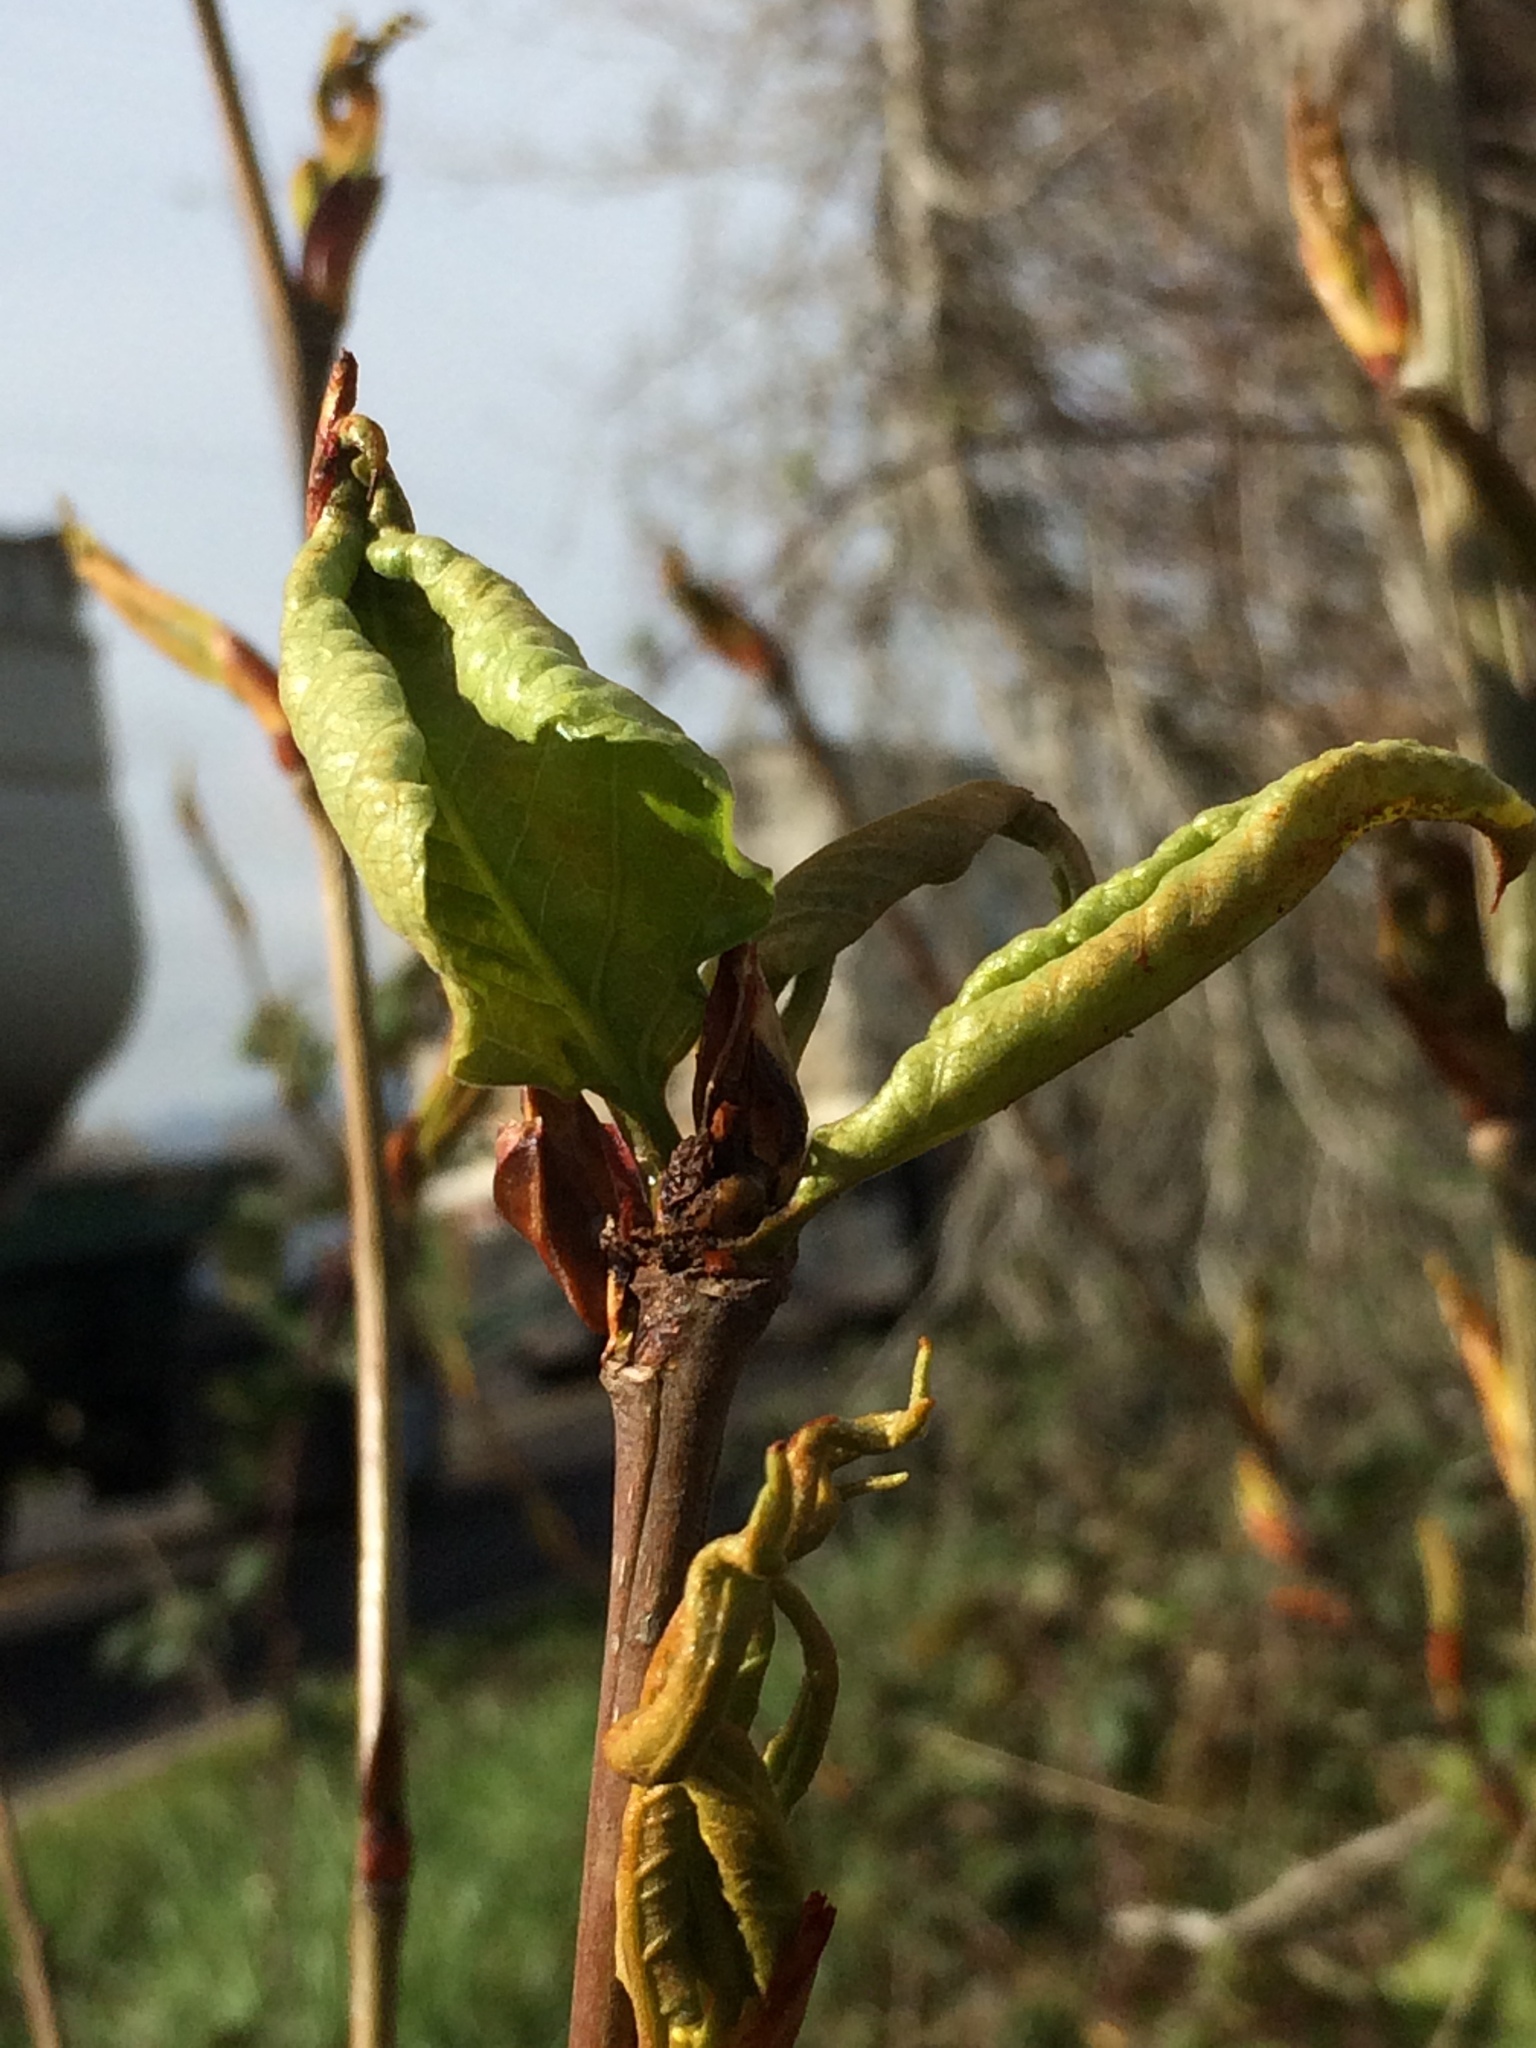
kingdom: Plantae
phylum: Tracheophyta
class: Magnoliopsida
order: Malpighiales
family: Salicaceae
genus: Populus
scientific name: Populus trichocarpa
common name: Black cottonwood
